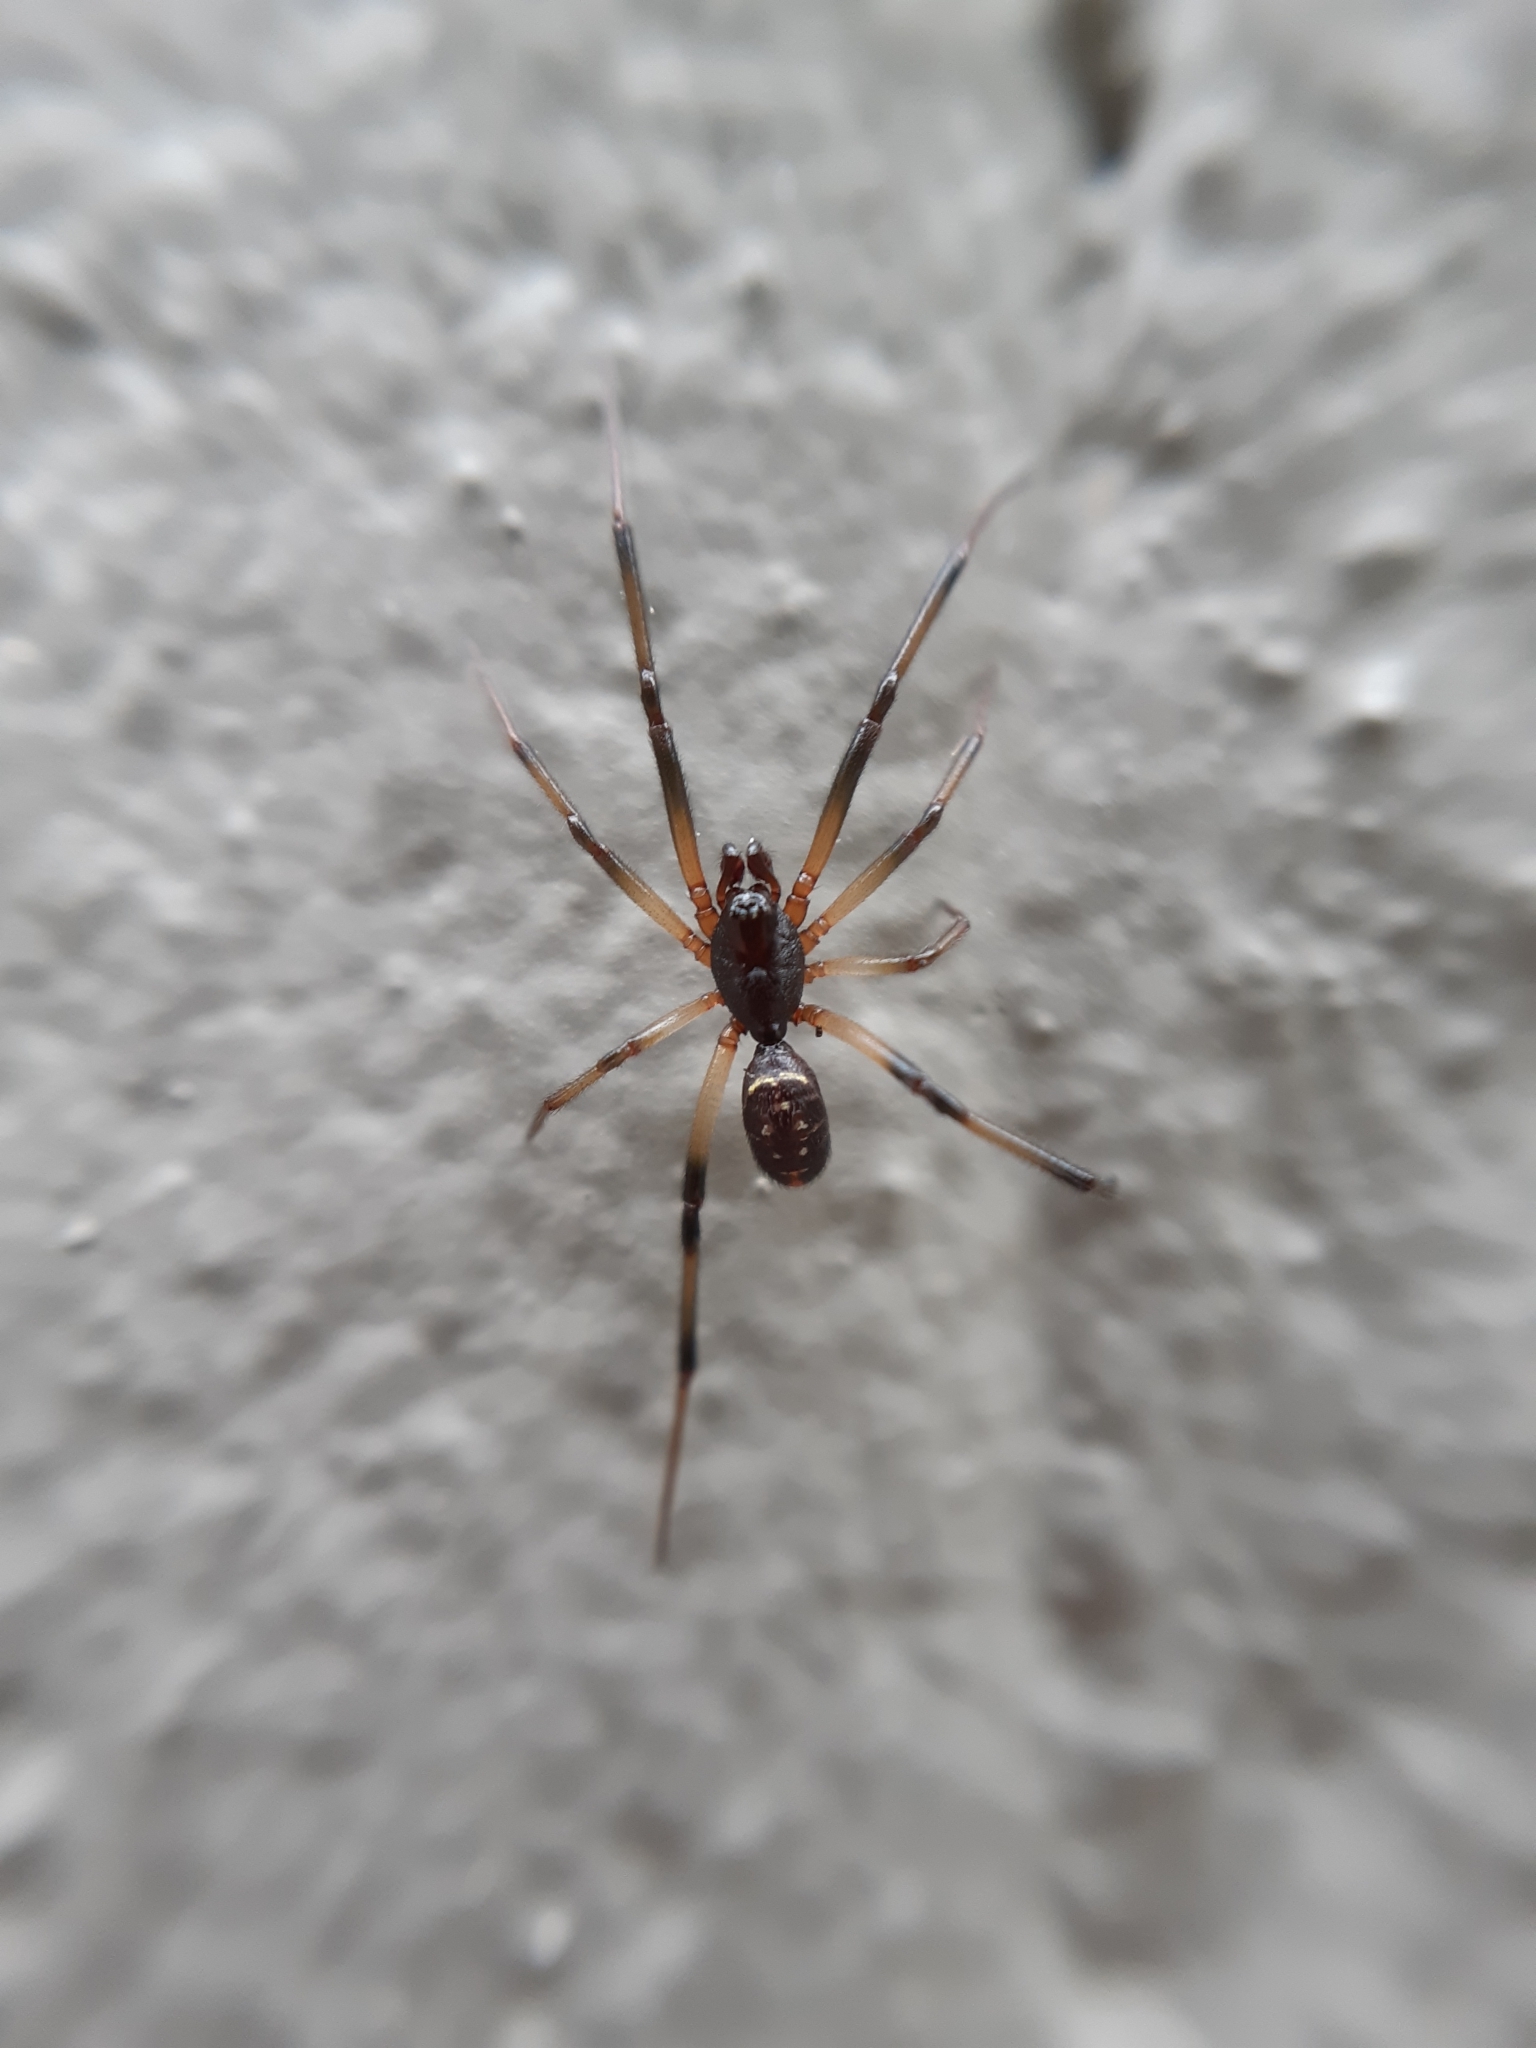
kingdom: Animalia
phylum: Arthropoda
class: Arachnida
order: Araneae
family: Theridiidae
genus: Steatoda
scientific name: Steatoda capensis
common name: Cobweb weaver
